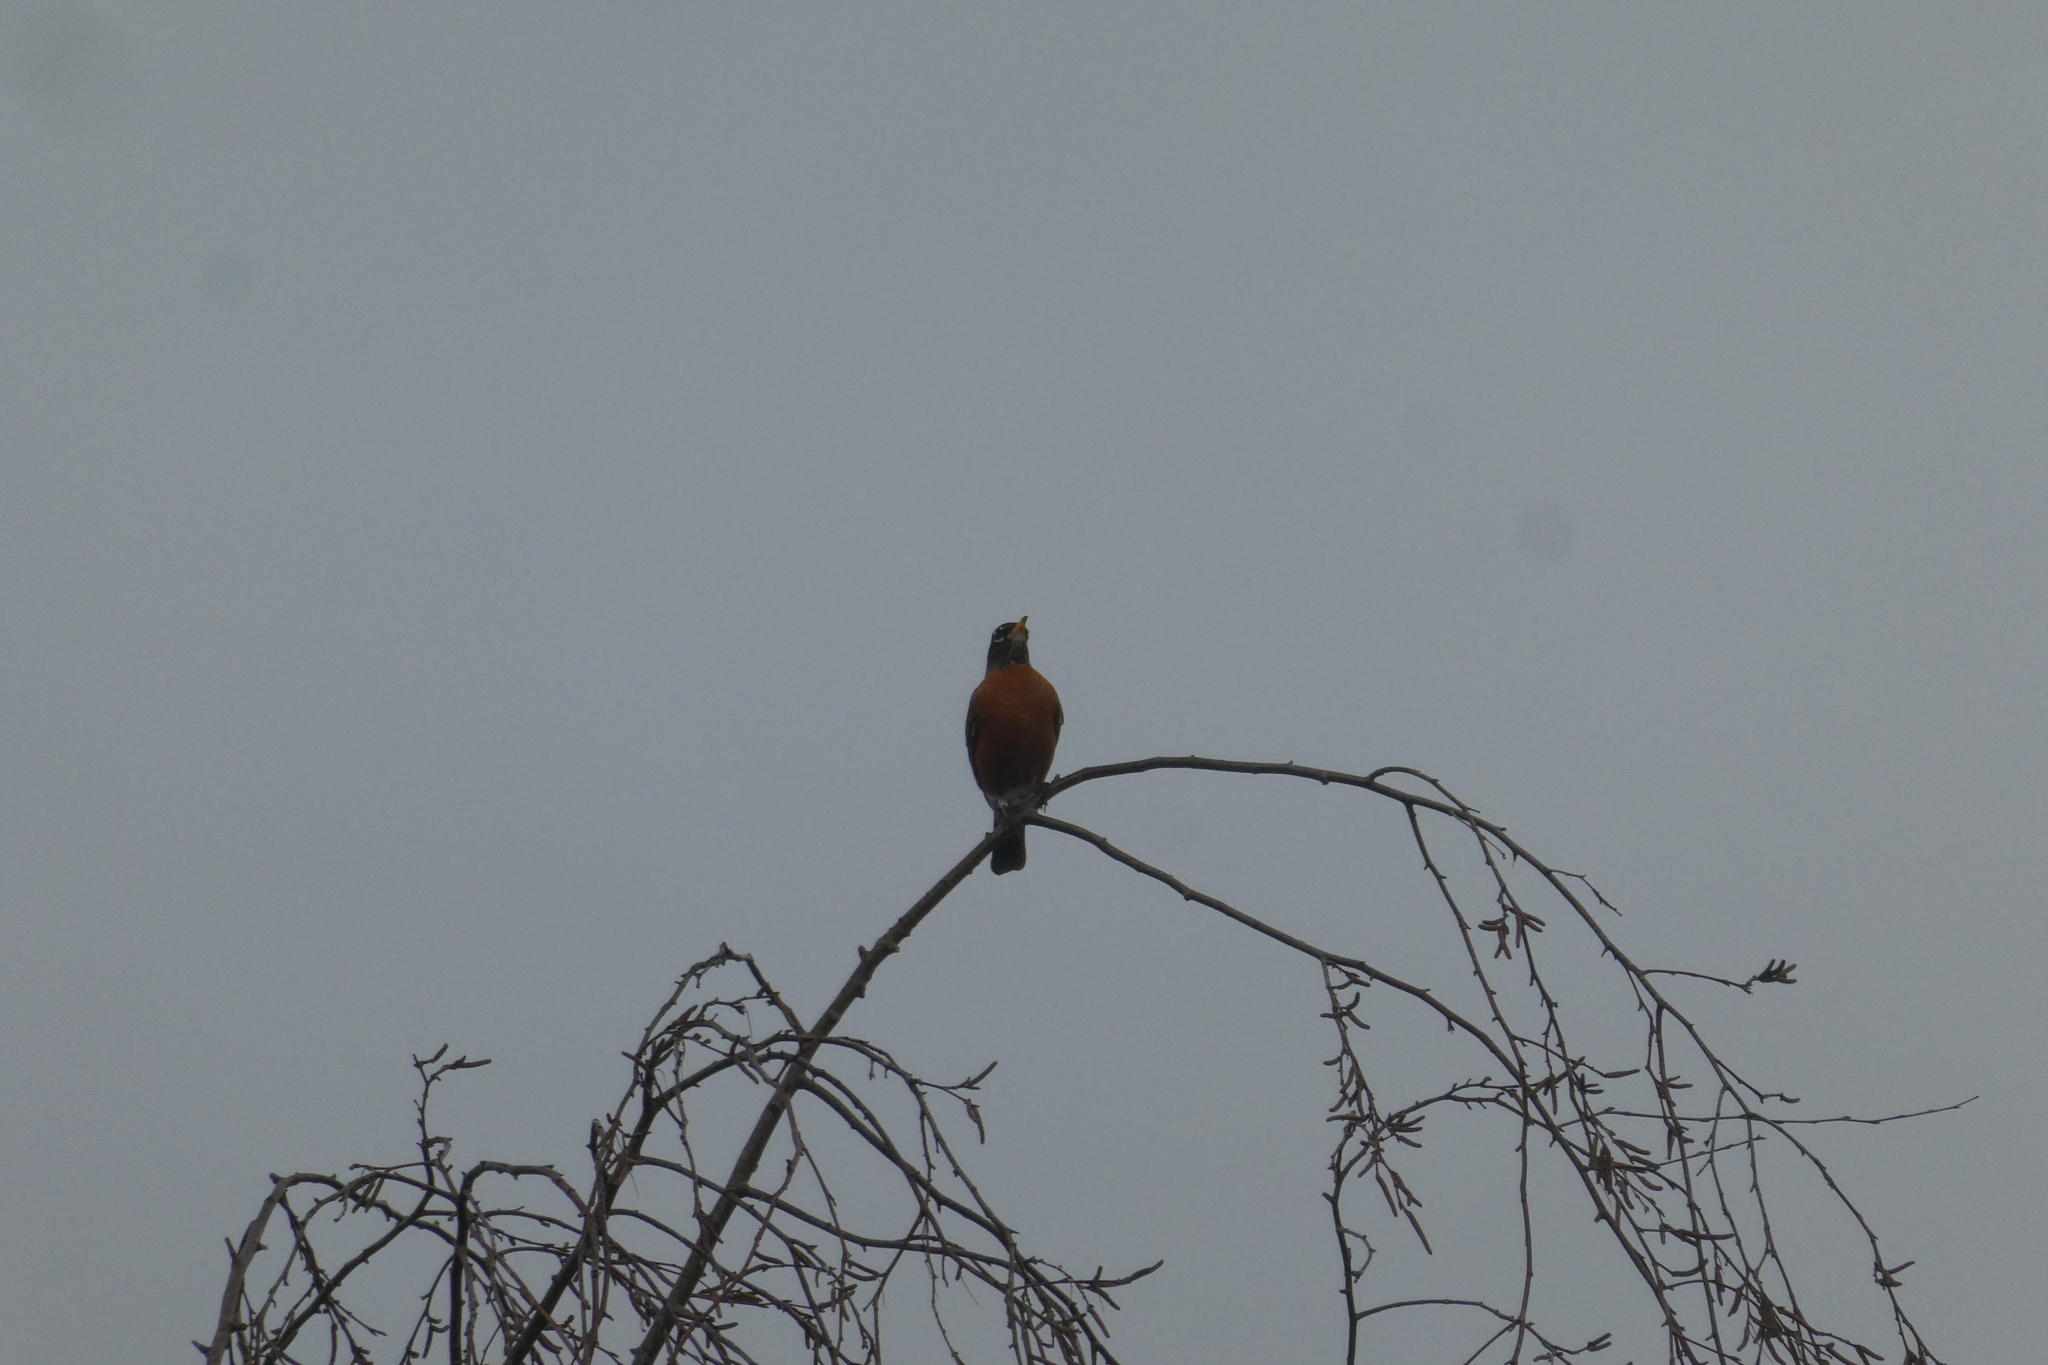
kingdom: Animalia
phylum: Chordata
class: Aves
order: Passeriformes
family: Turdidae
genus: Turdus
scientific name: Turdus migratorius
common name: American robin
